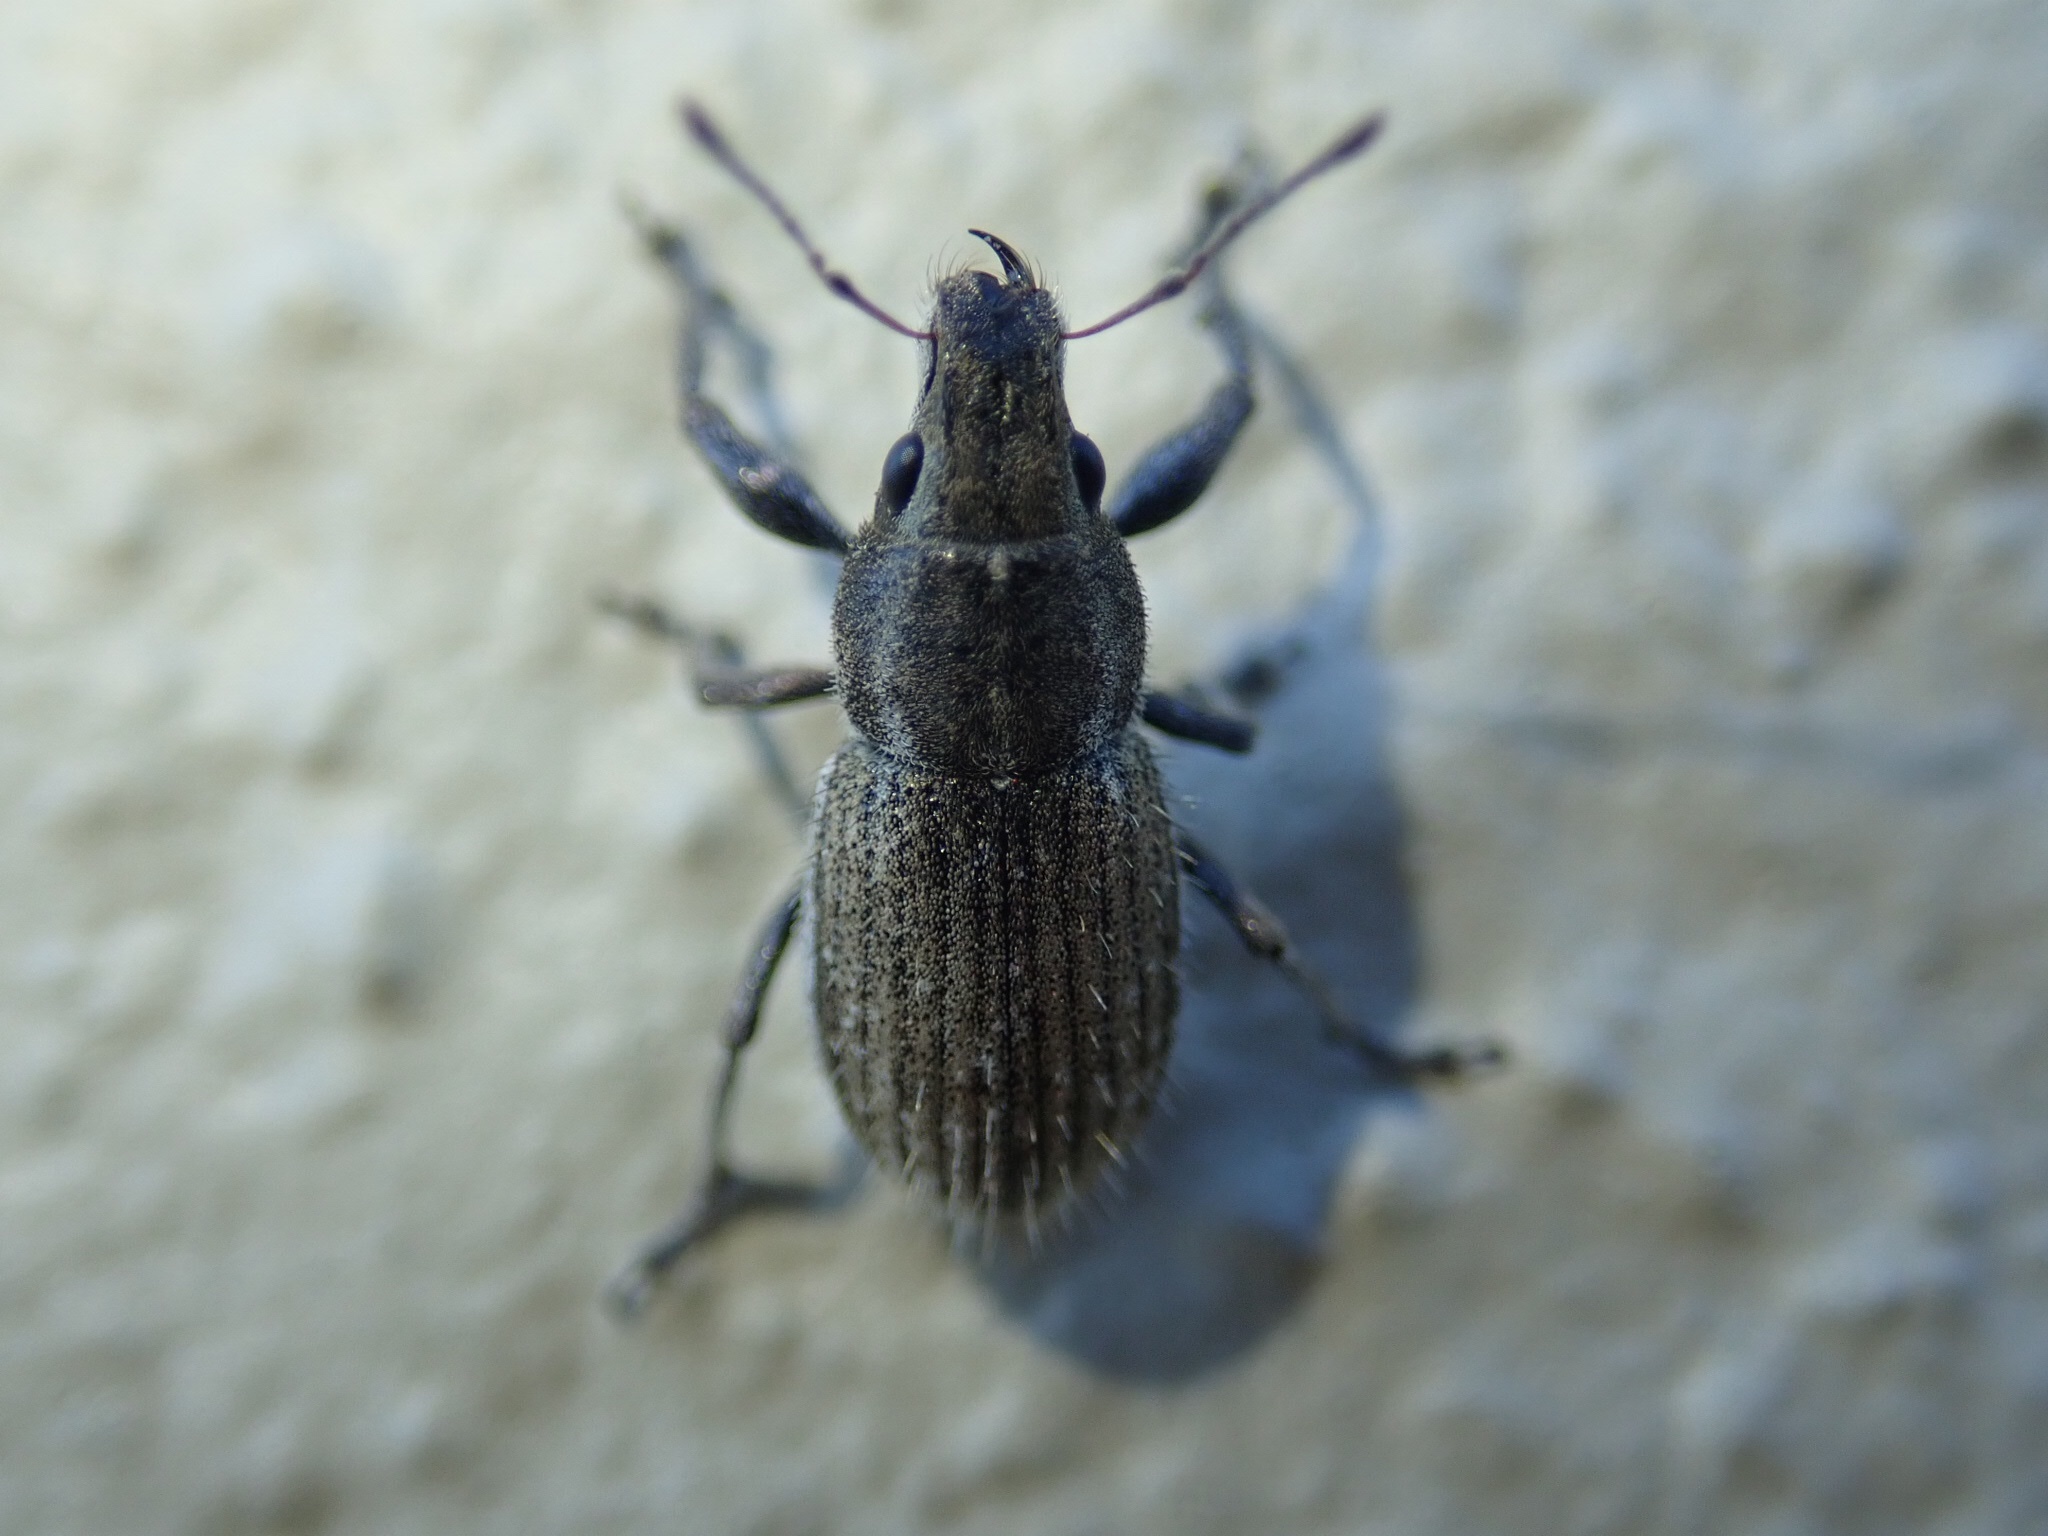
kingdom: Animalia
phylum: Arthropoda
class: Insecta
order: Coleoptera
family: Curculionidae
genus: Naupactus
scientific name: Naupactus leucoloma
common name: Whitefringed beetle
